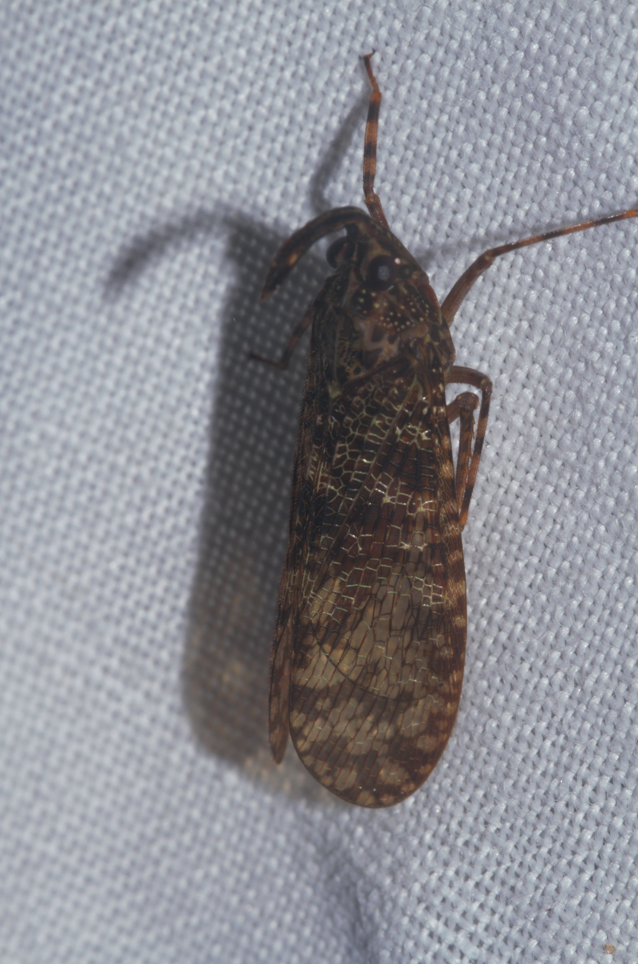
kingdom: Animalia
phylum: Arthropoda
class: Insecta
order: Hemiptera
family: Fulgoridae
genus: Enhydria
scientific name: Enhydria tessellata
